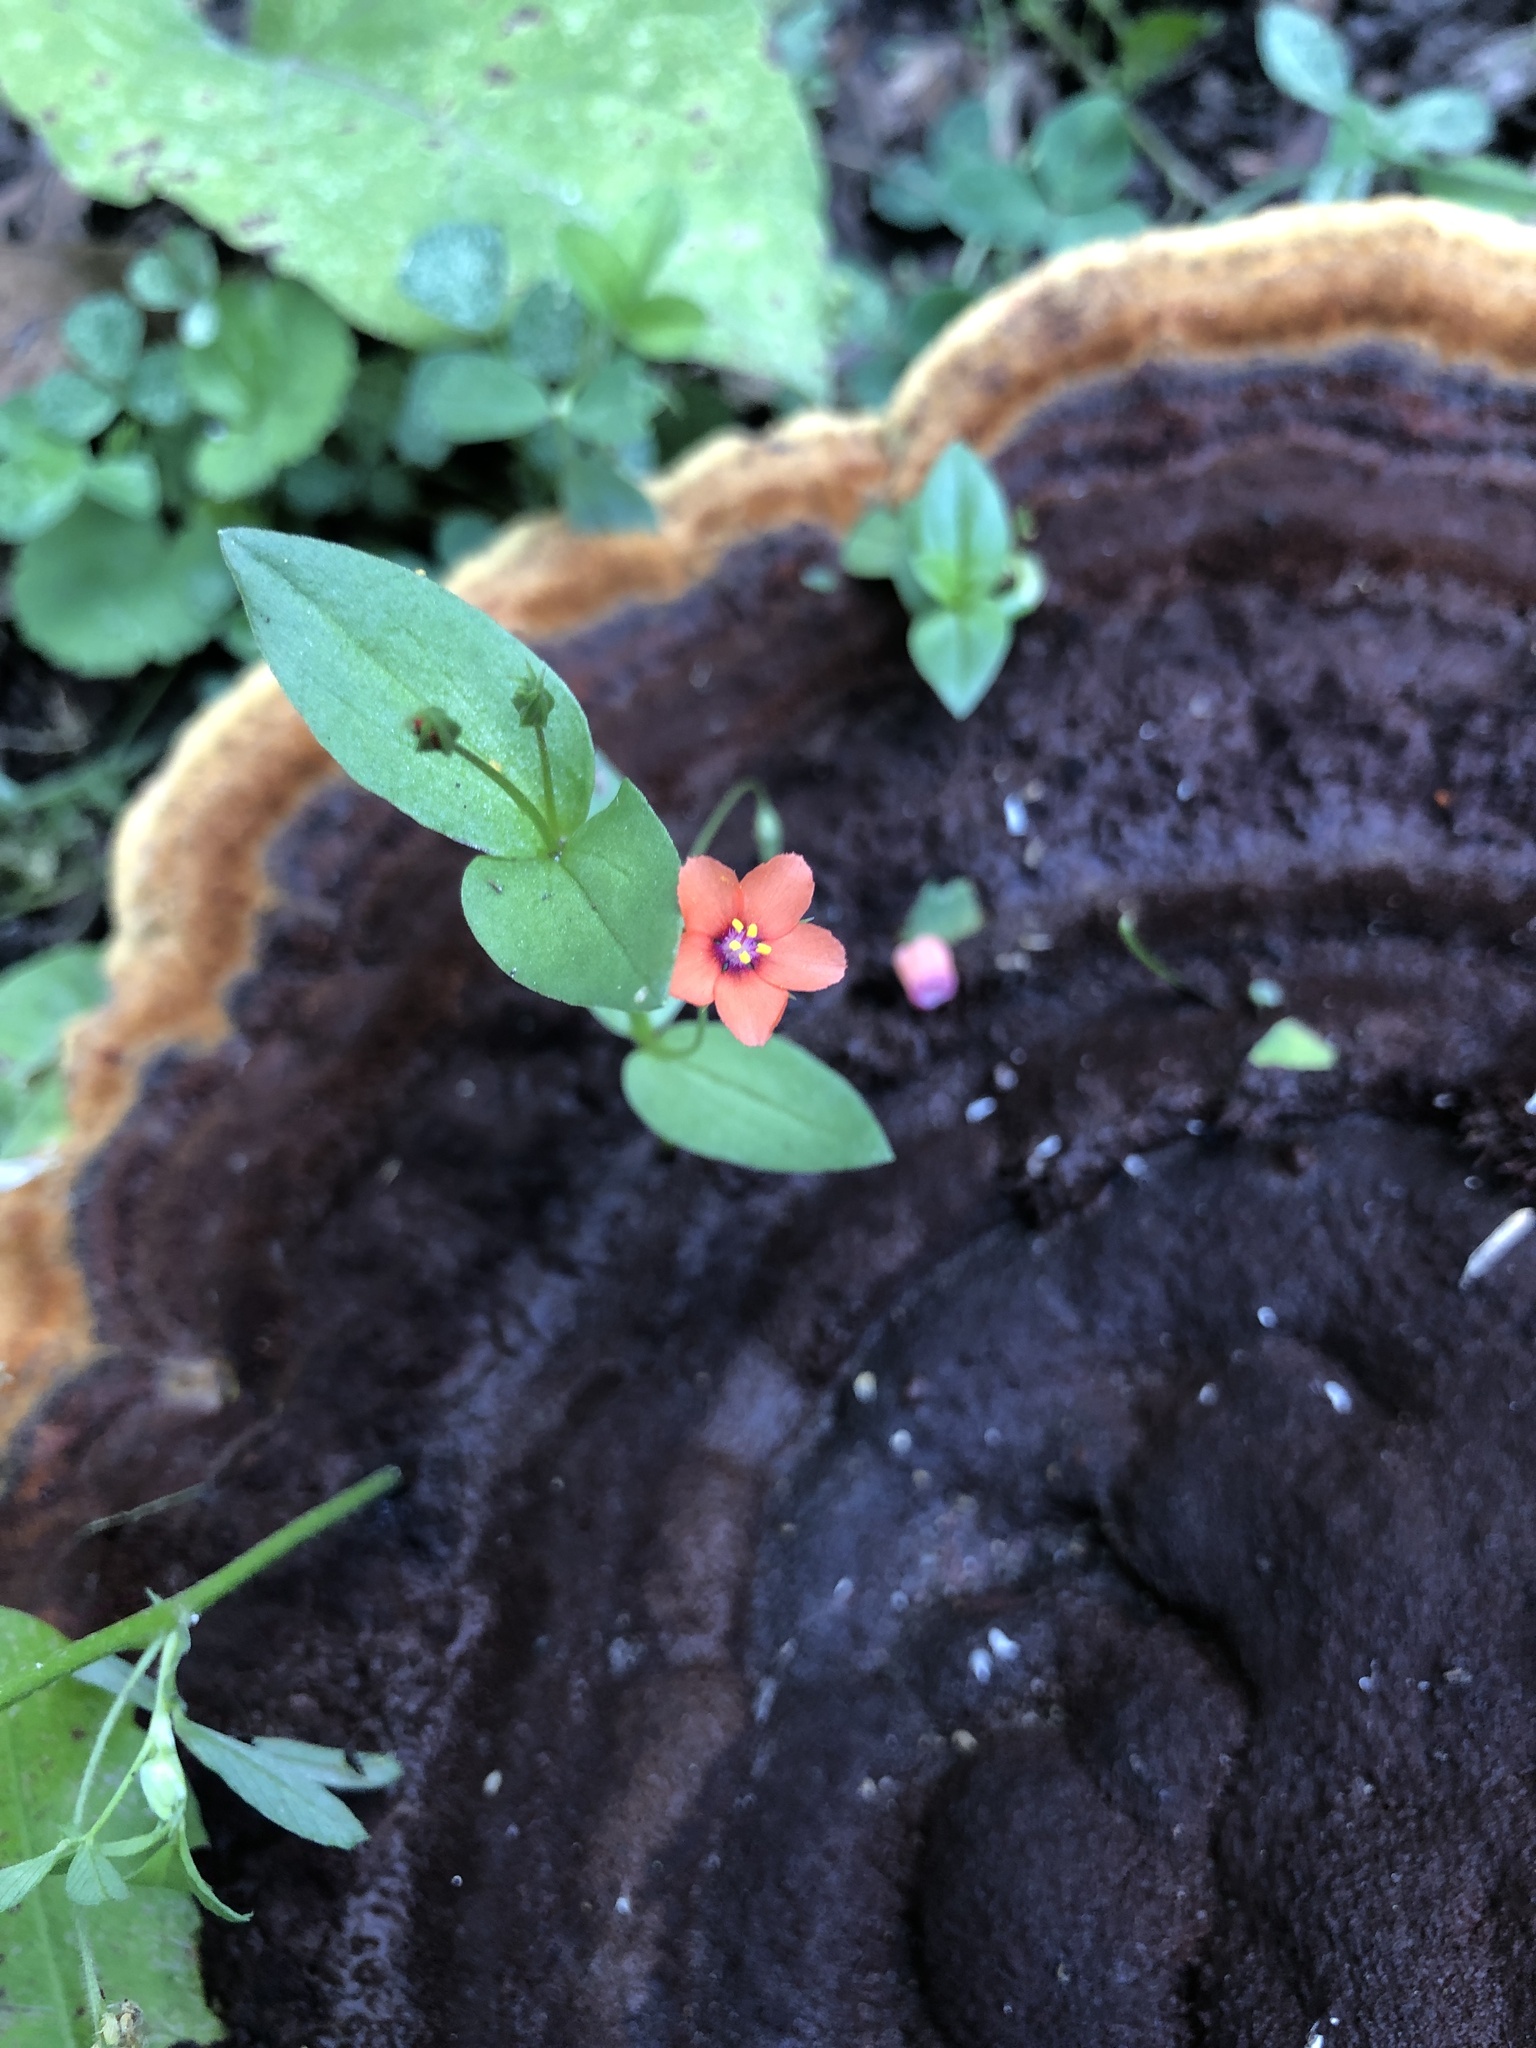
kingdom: Plantae
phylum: Tracheophyta
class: Magnoliopsida
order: Ericales
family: Primulaceae
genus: Lysimachia
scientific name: Lysimachia arvensis
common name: Scarlet pimpernel
